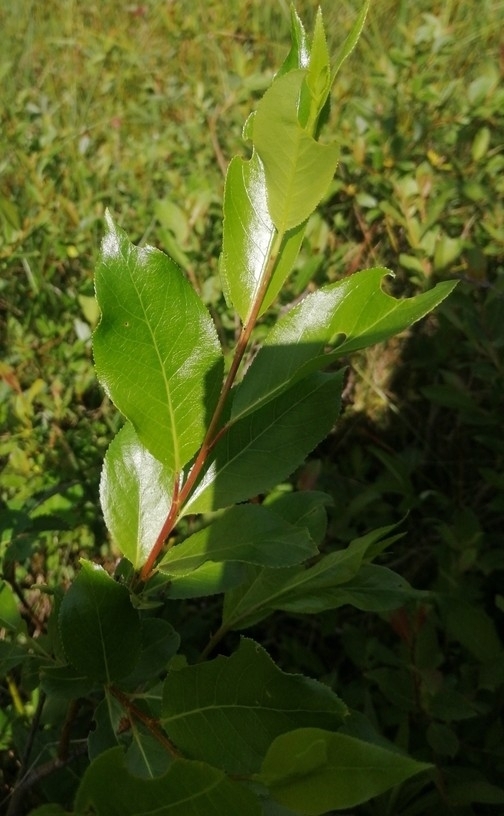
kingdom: Plantae
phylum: Tracheophyta
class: Magnoliopsida
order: Malpighiales
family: Salicaceae
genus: Salix
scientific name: Salix pentandra
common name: Bay willow
